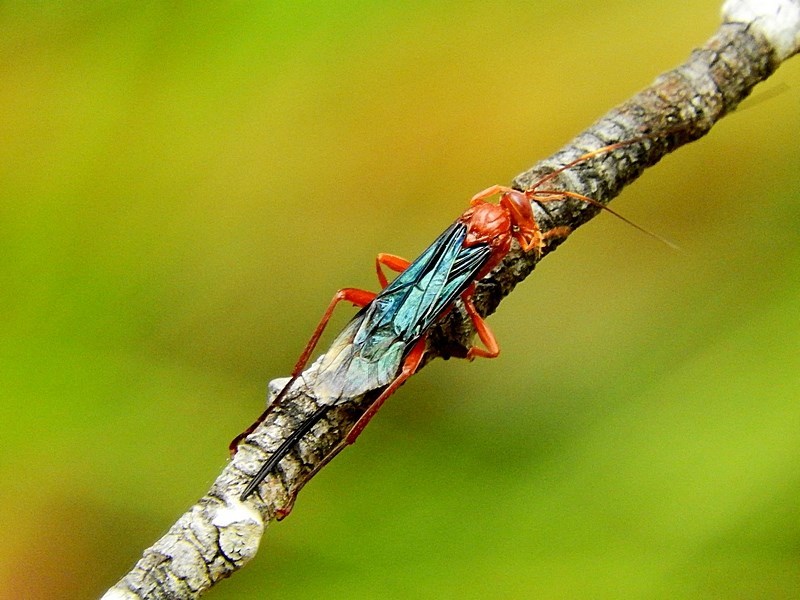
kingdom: Animalia
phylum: Arthropoda
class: Insecta
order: Hymenoptera
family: Ichneumonidae
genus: Lissopimpla
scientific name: Lissopimpla excelsa
